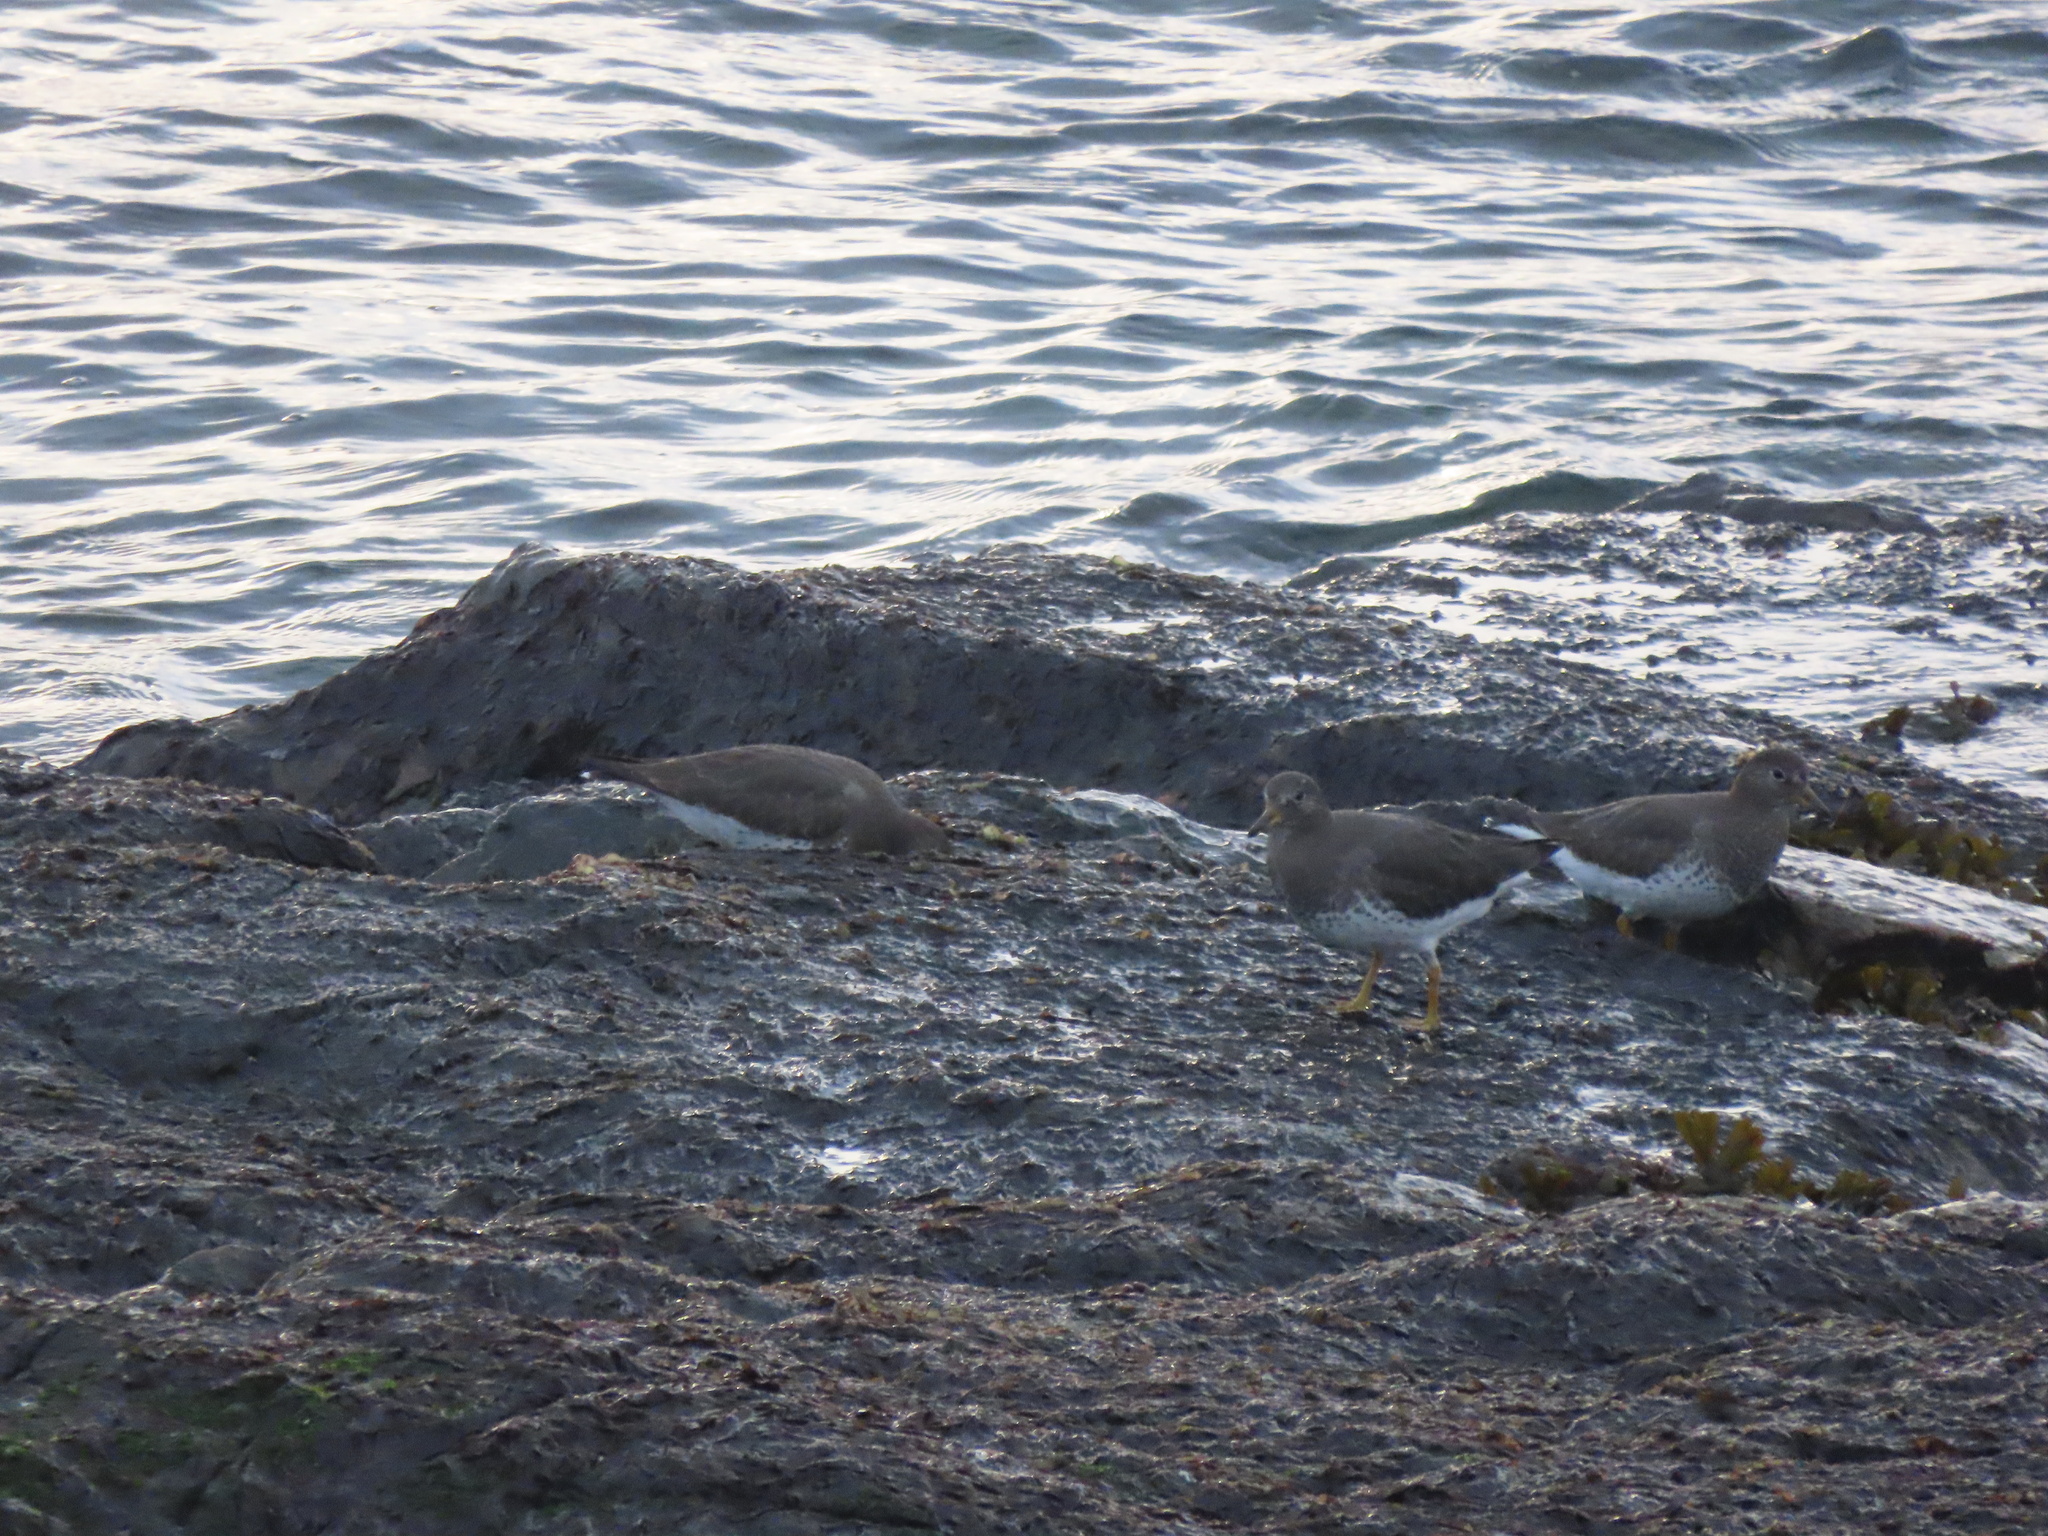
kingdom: Animalia
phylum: Chordata
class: Aves
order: Charadriiformes
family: Scolopacidae
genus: Calidris
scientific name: Calidris virgata
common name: Surfbird
